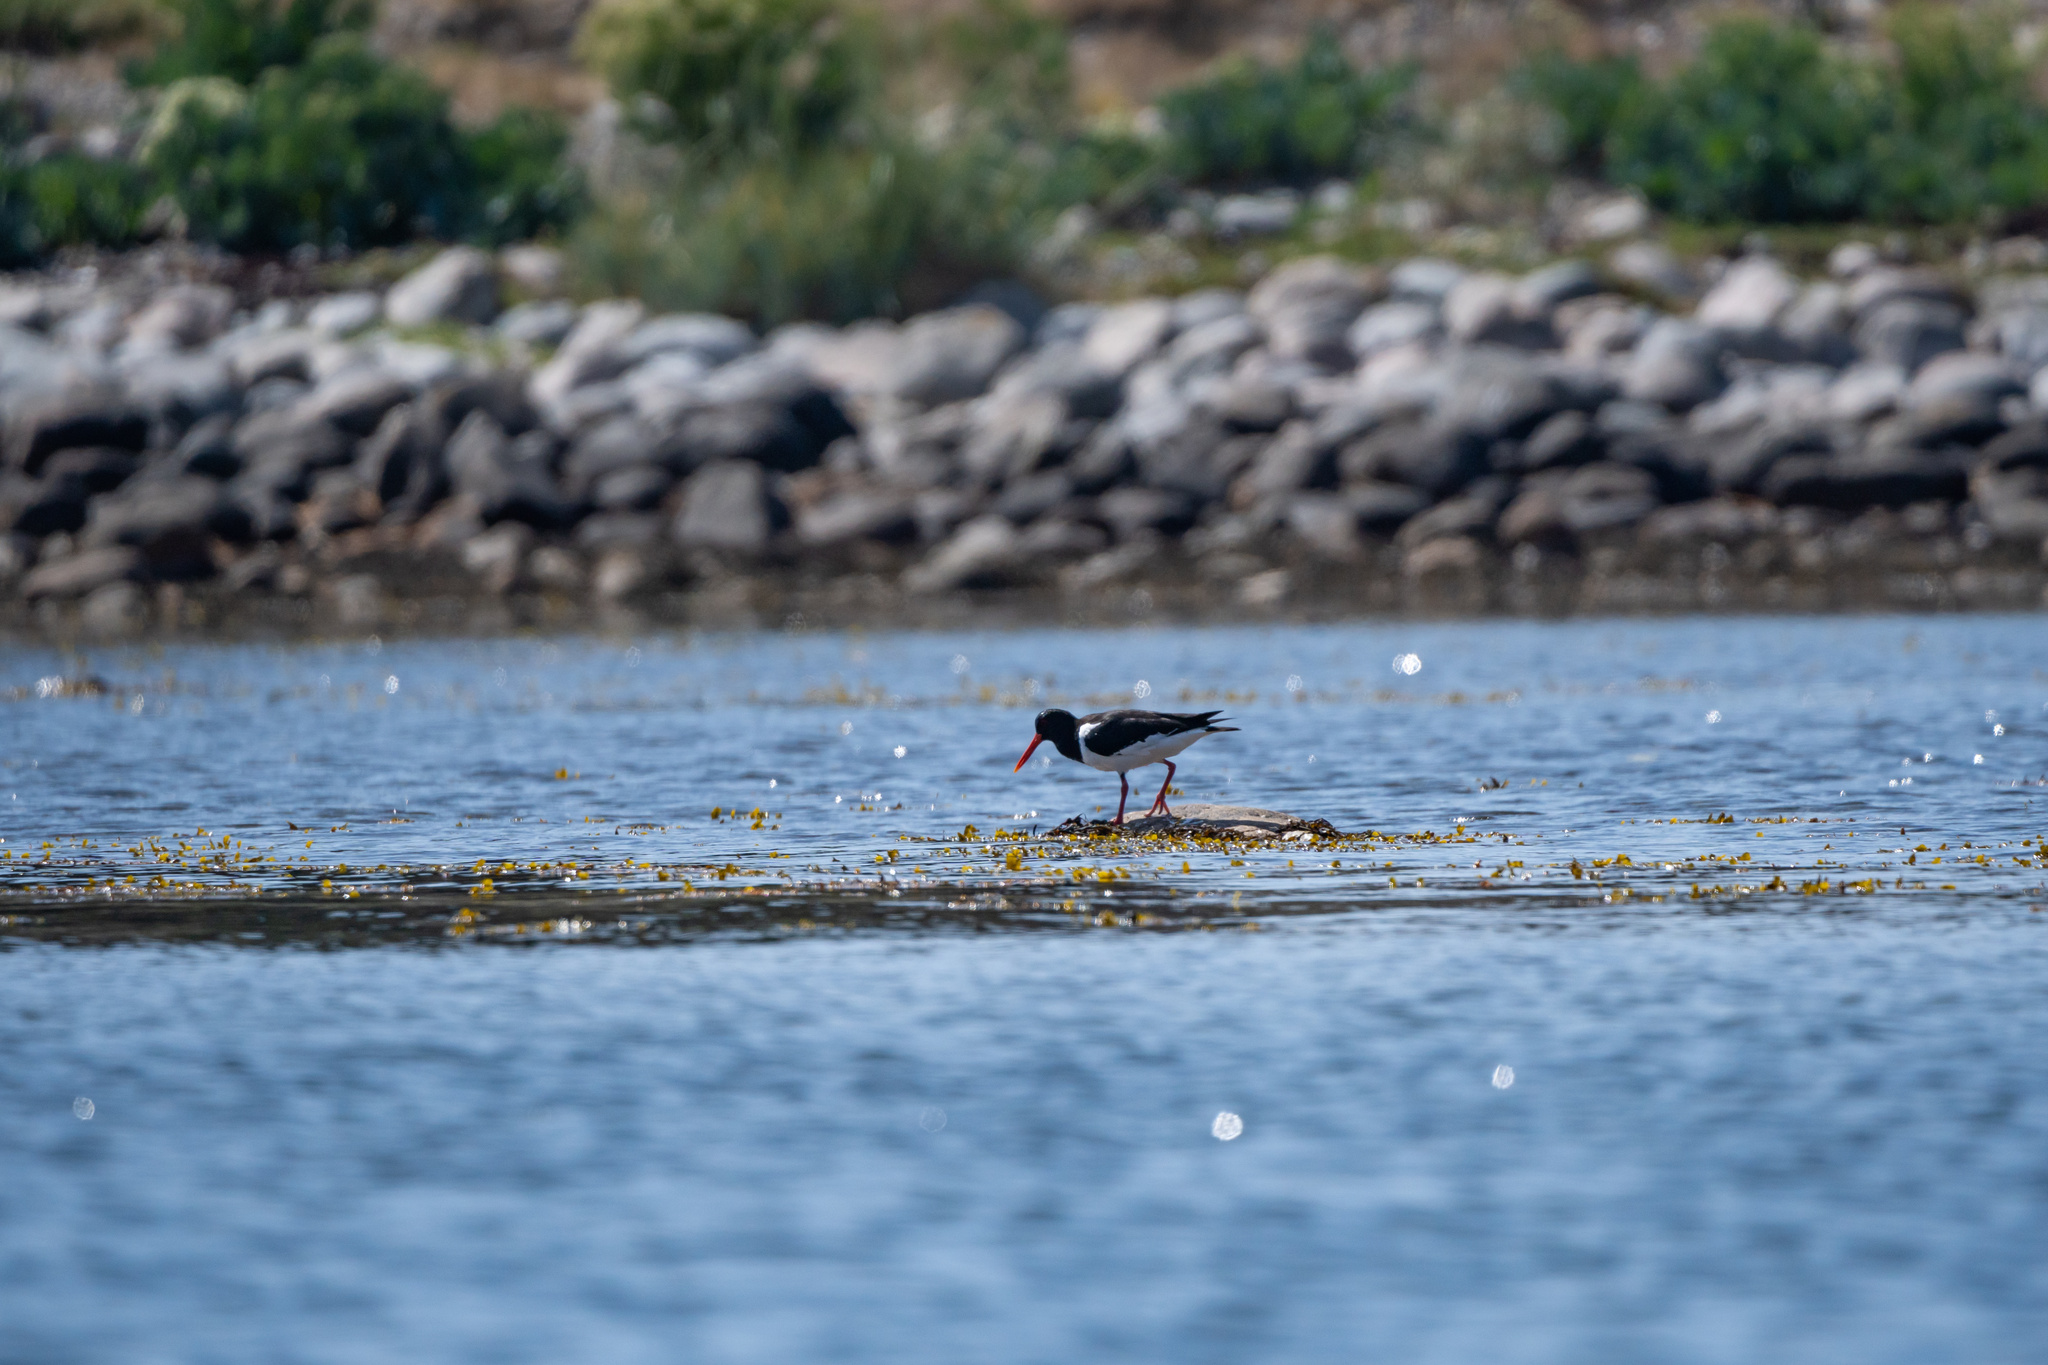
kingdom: Animalia
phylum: Chordata
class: Aves
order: Charadriiformes
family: Haematopodidae
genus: Haematopus
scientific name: Haematopus ostralegus
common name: Eurasian oystercatcher
